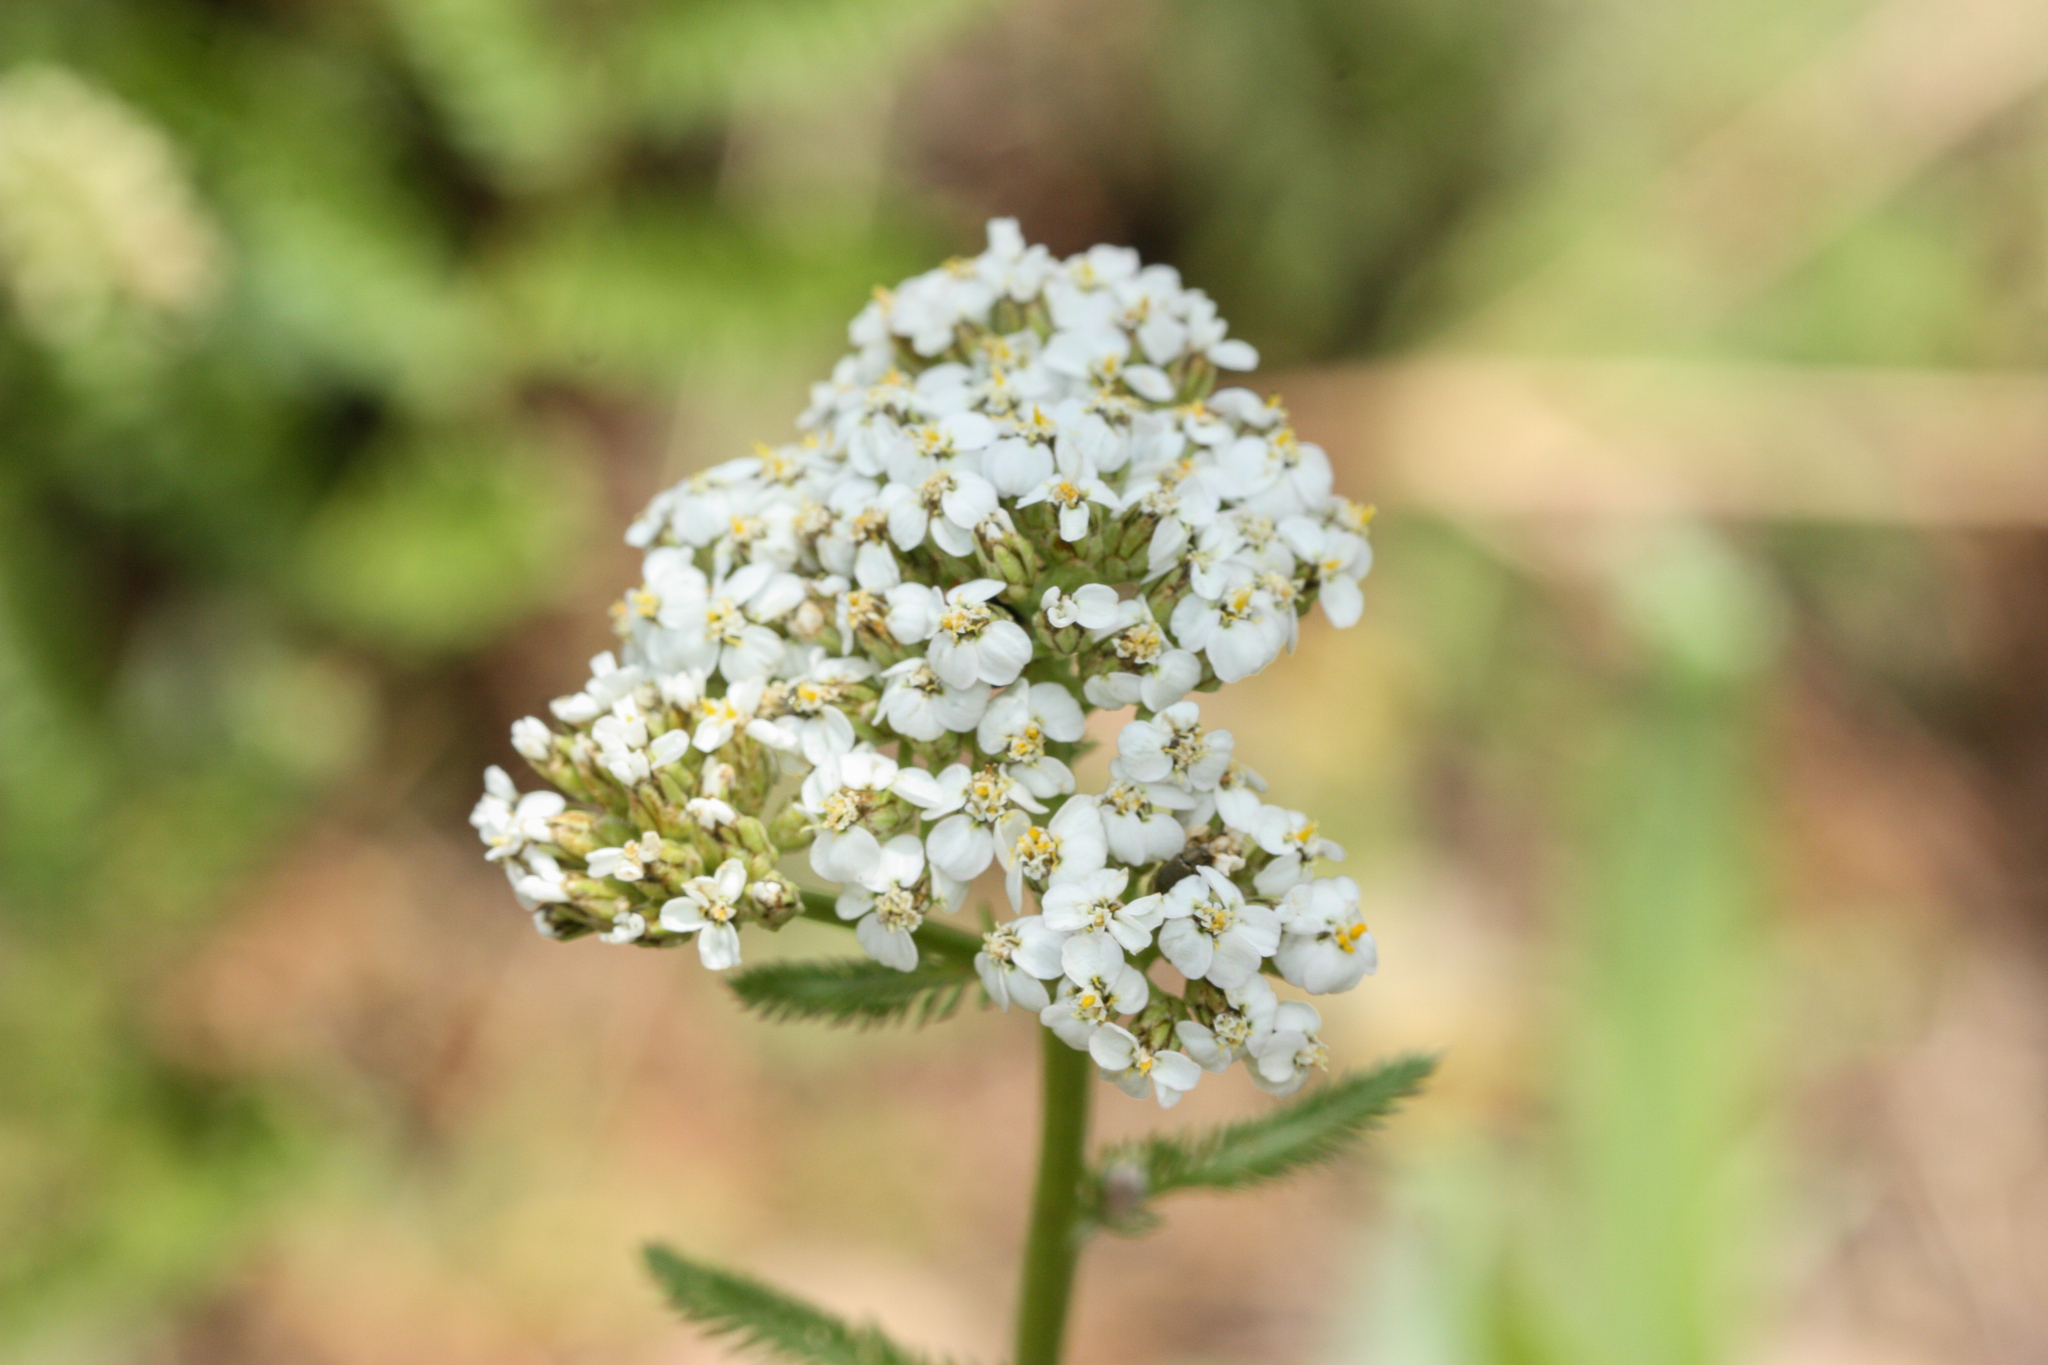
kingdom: Plantae
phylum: Tracheophyta
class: Magnoliopsida
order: Asterales
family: Asteraceae
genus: Achillea
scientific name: Achillea millefolium
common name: Yarrow
